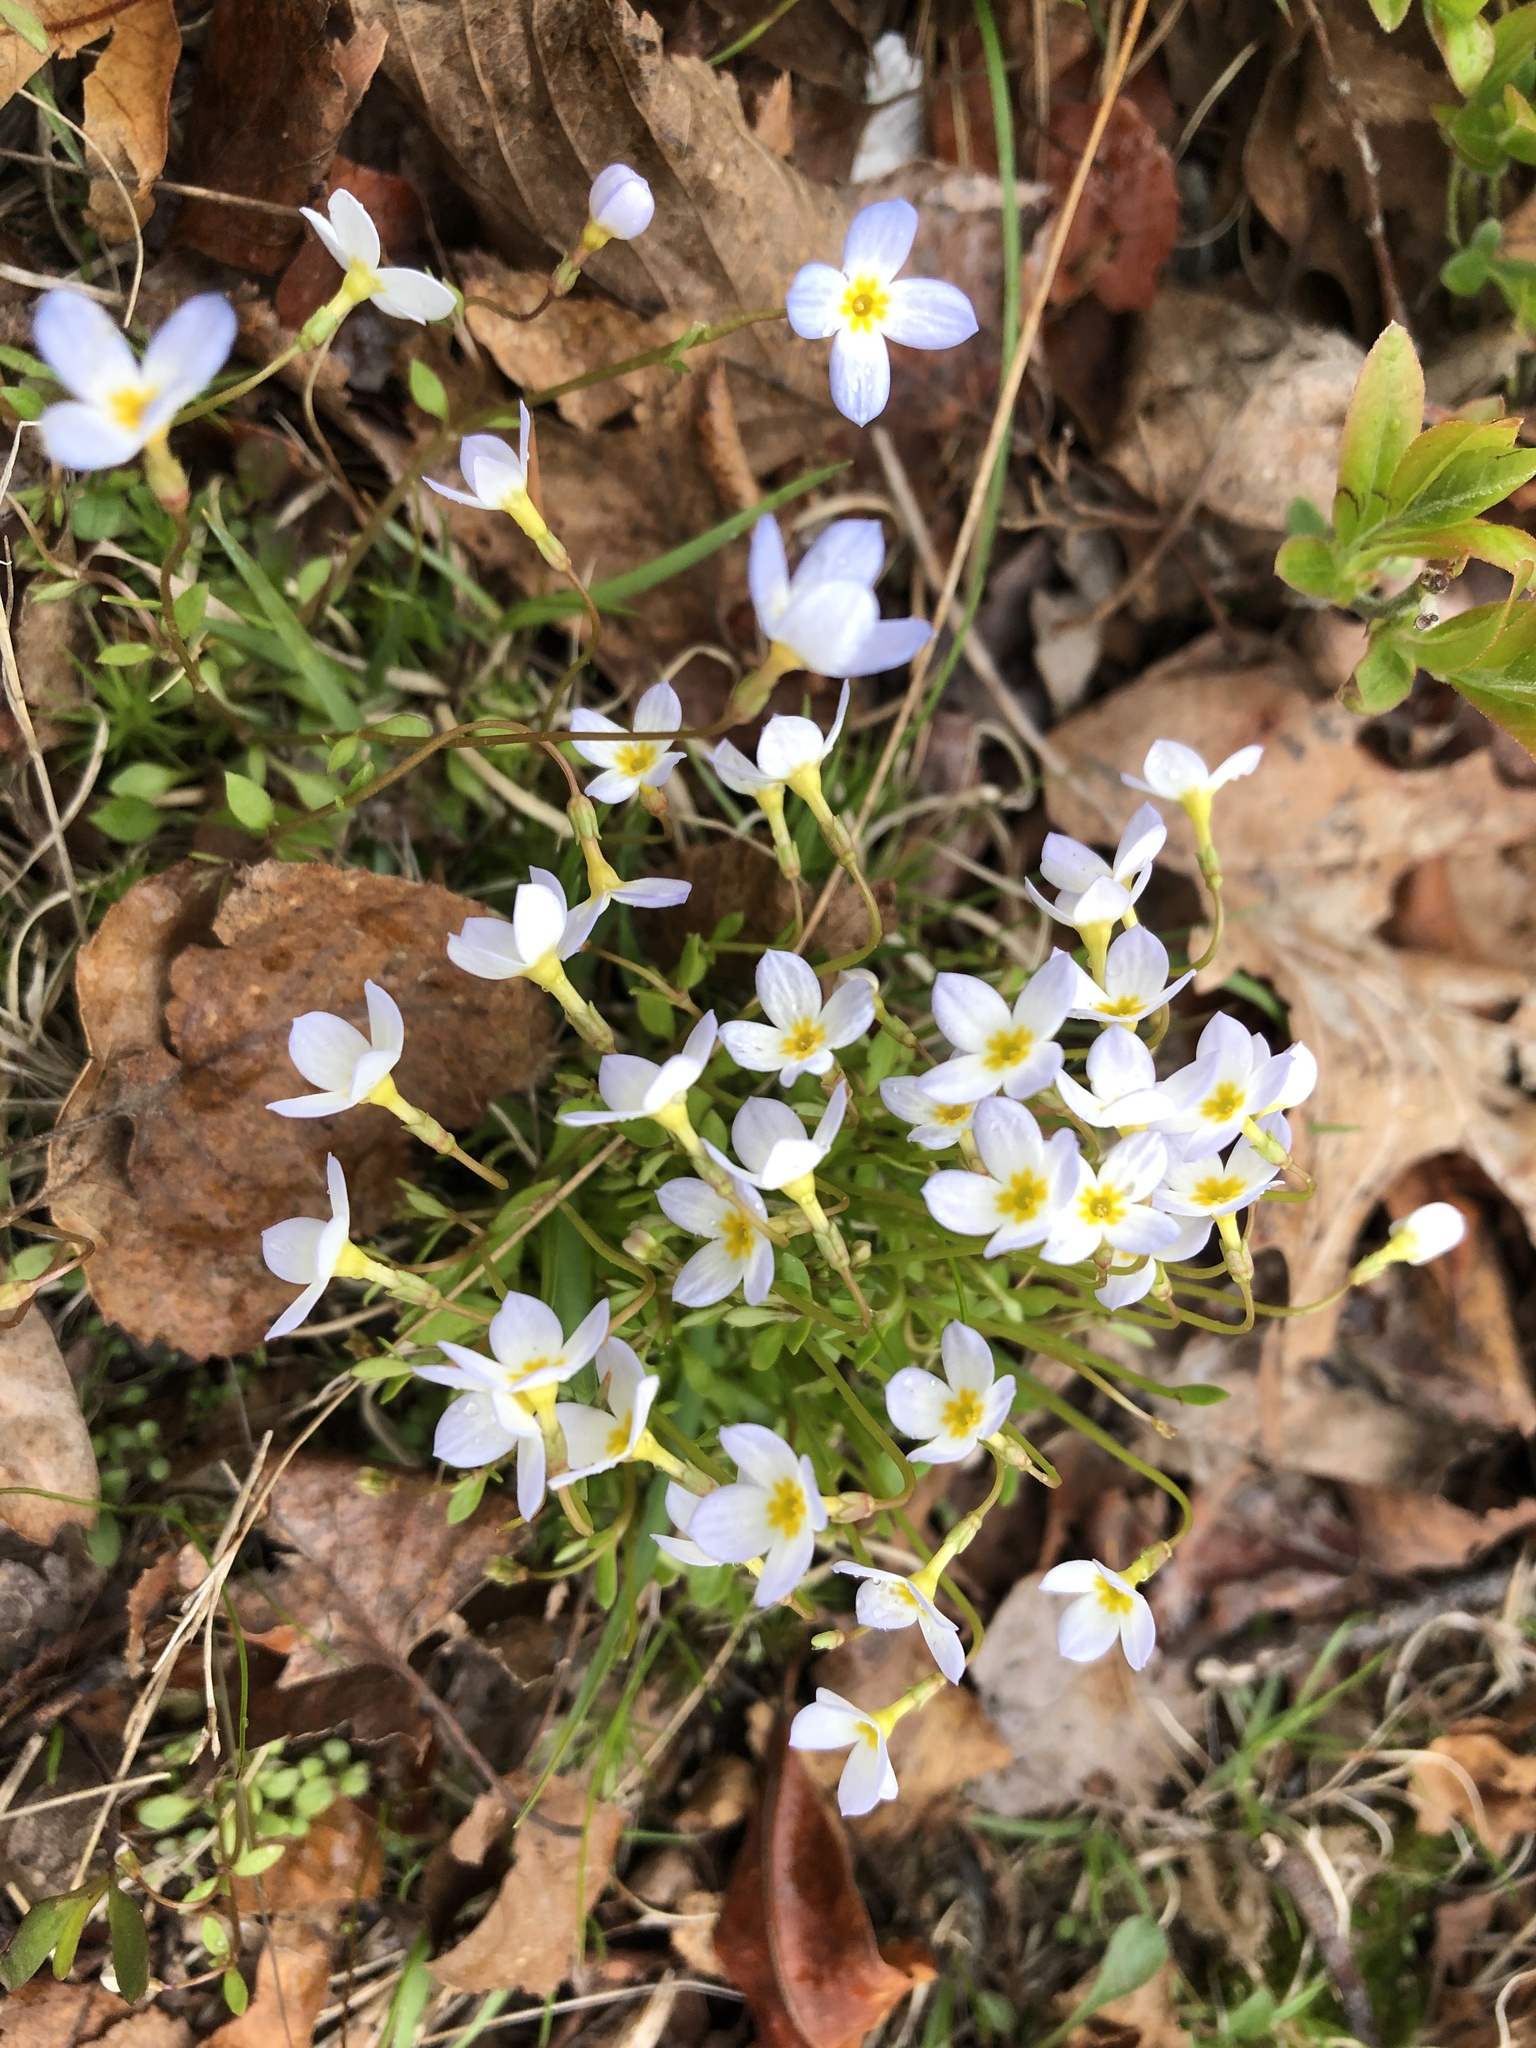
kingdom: Plantae
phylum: Tracheophyta
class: Magnoliopsida
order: Gentianales
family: Rubiaceae
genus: Houstonia
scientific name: Houstonia caerulea
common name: Bluets
